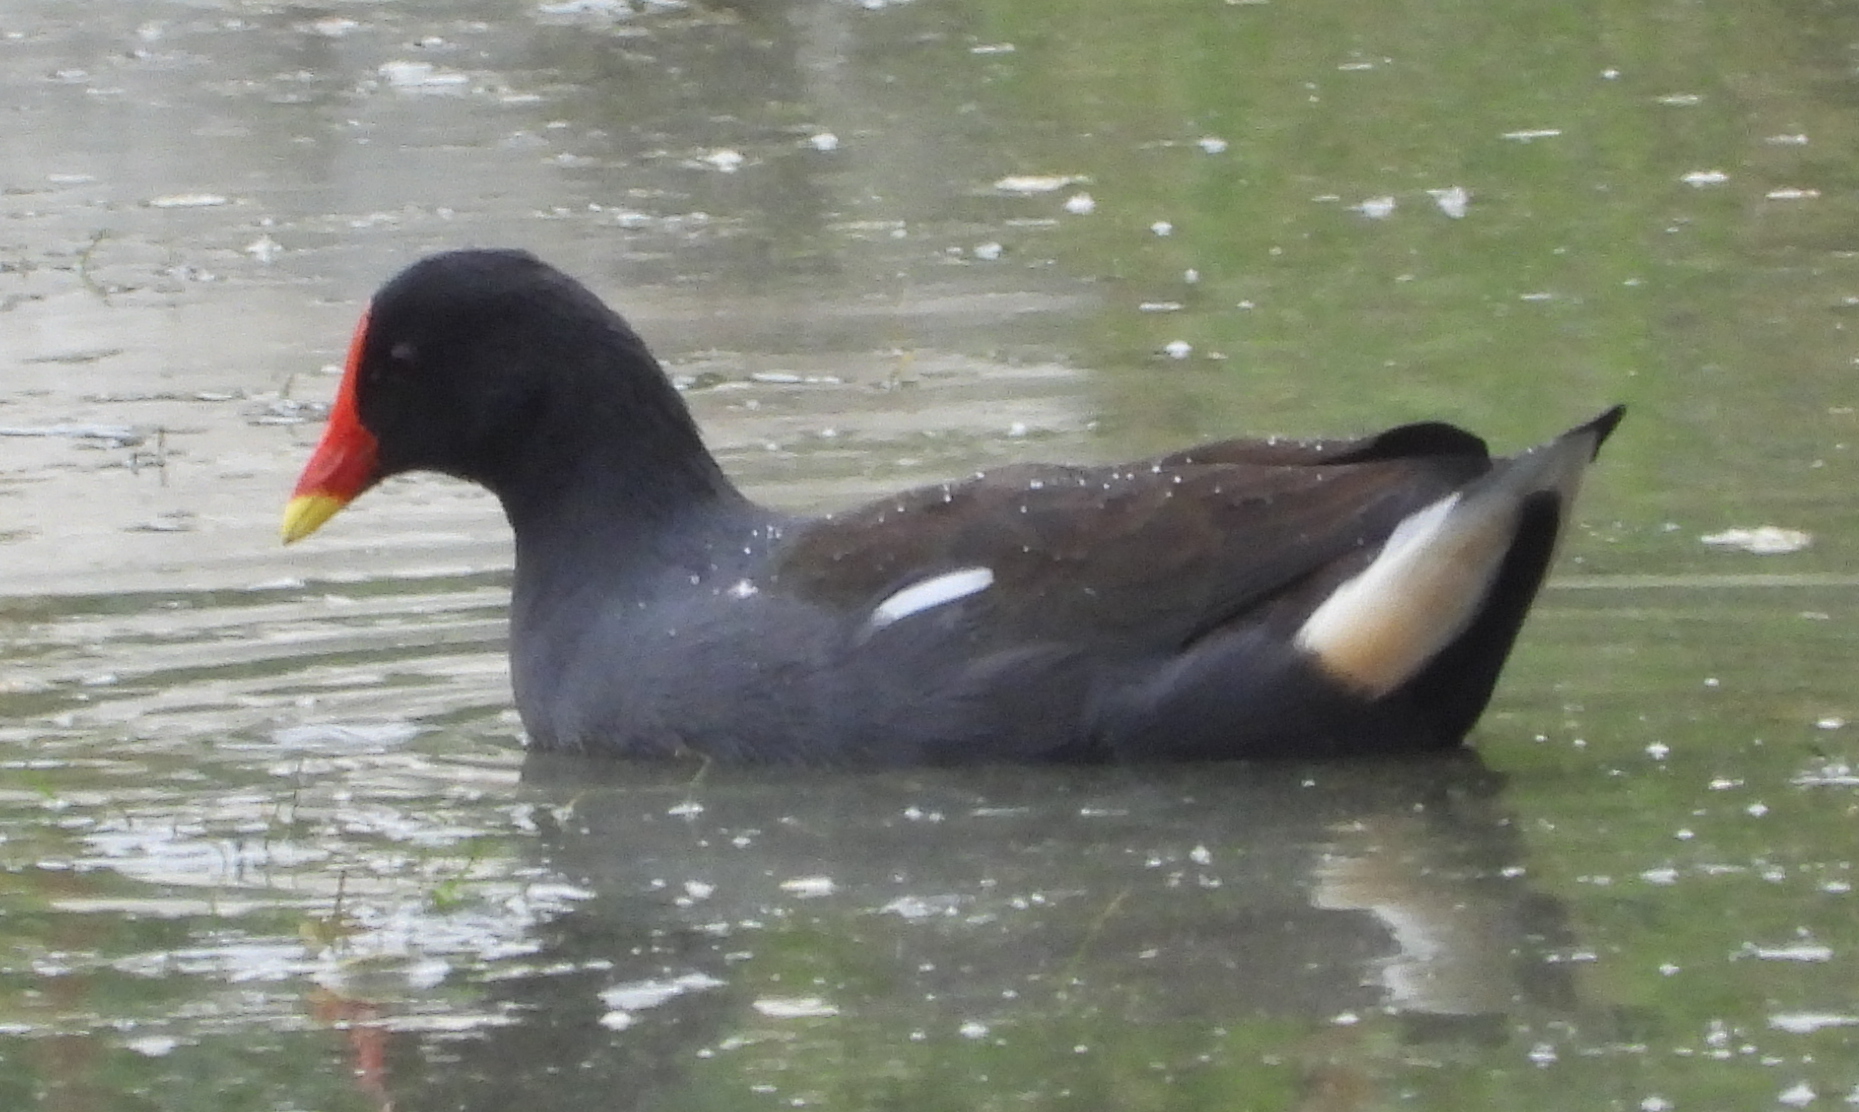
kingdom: Animalia
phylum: Chordata
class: Aves
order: Gruiformes
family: Rallidae
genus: Gallinula
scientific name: Gallinula chloropus
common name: Common moorhen
